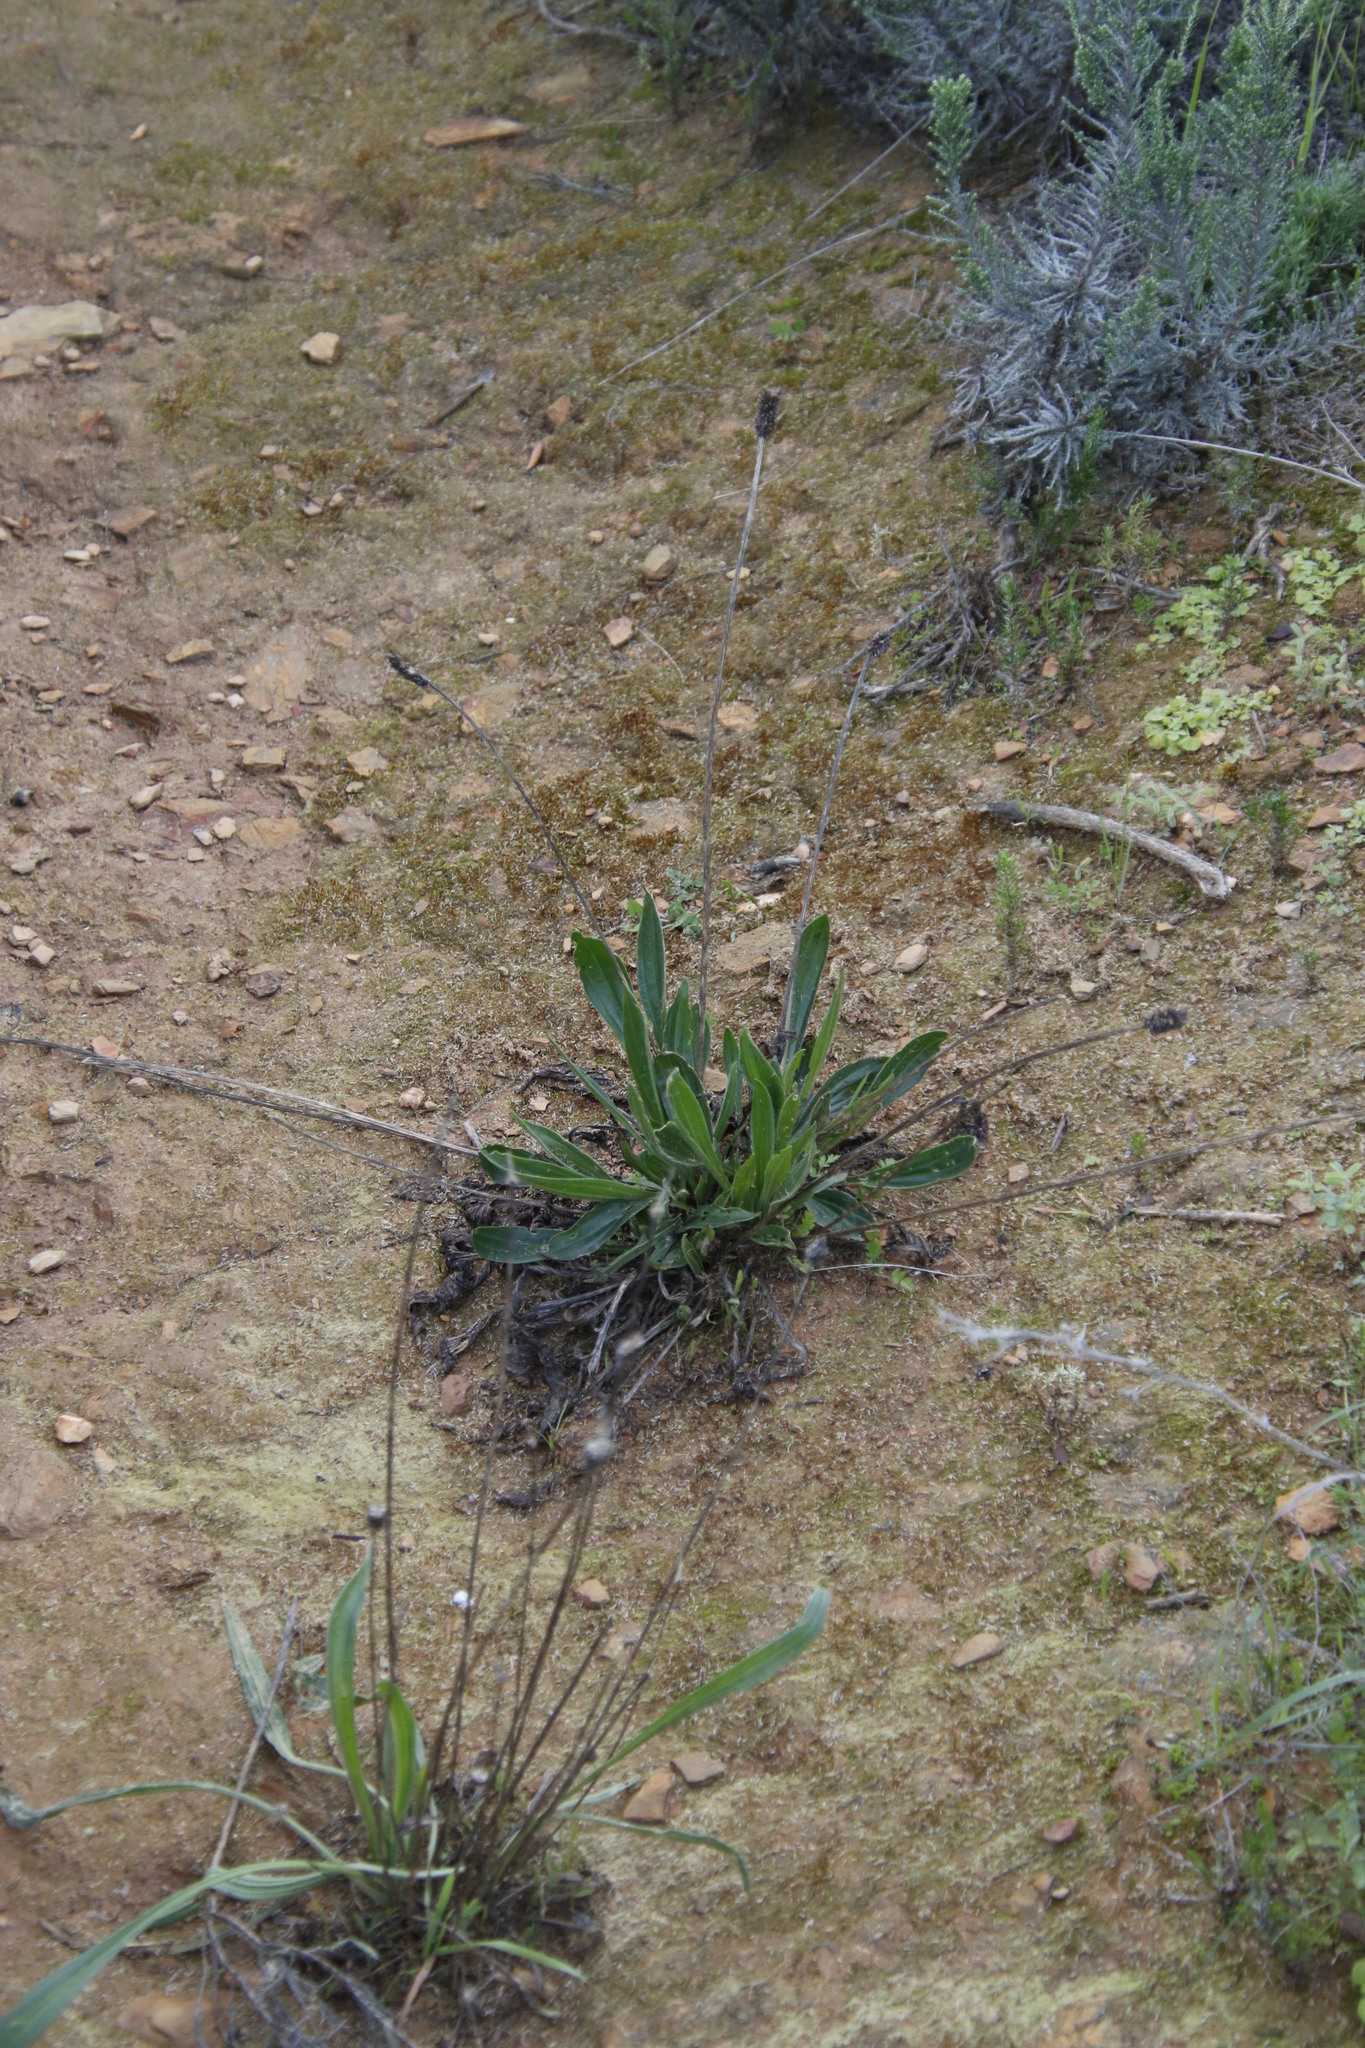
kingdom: Plantae
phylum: Tracheophyta
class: Magnoliopsida
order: Lamiales
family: Plantaginaceae
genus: Plantago
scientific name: Plantago lanceolata
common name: Ribwort plantain
